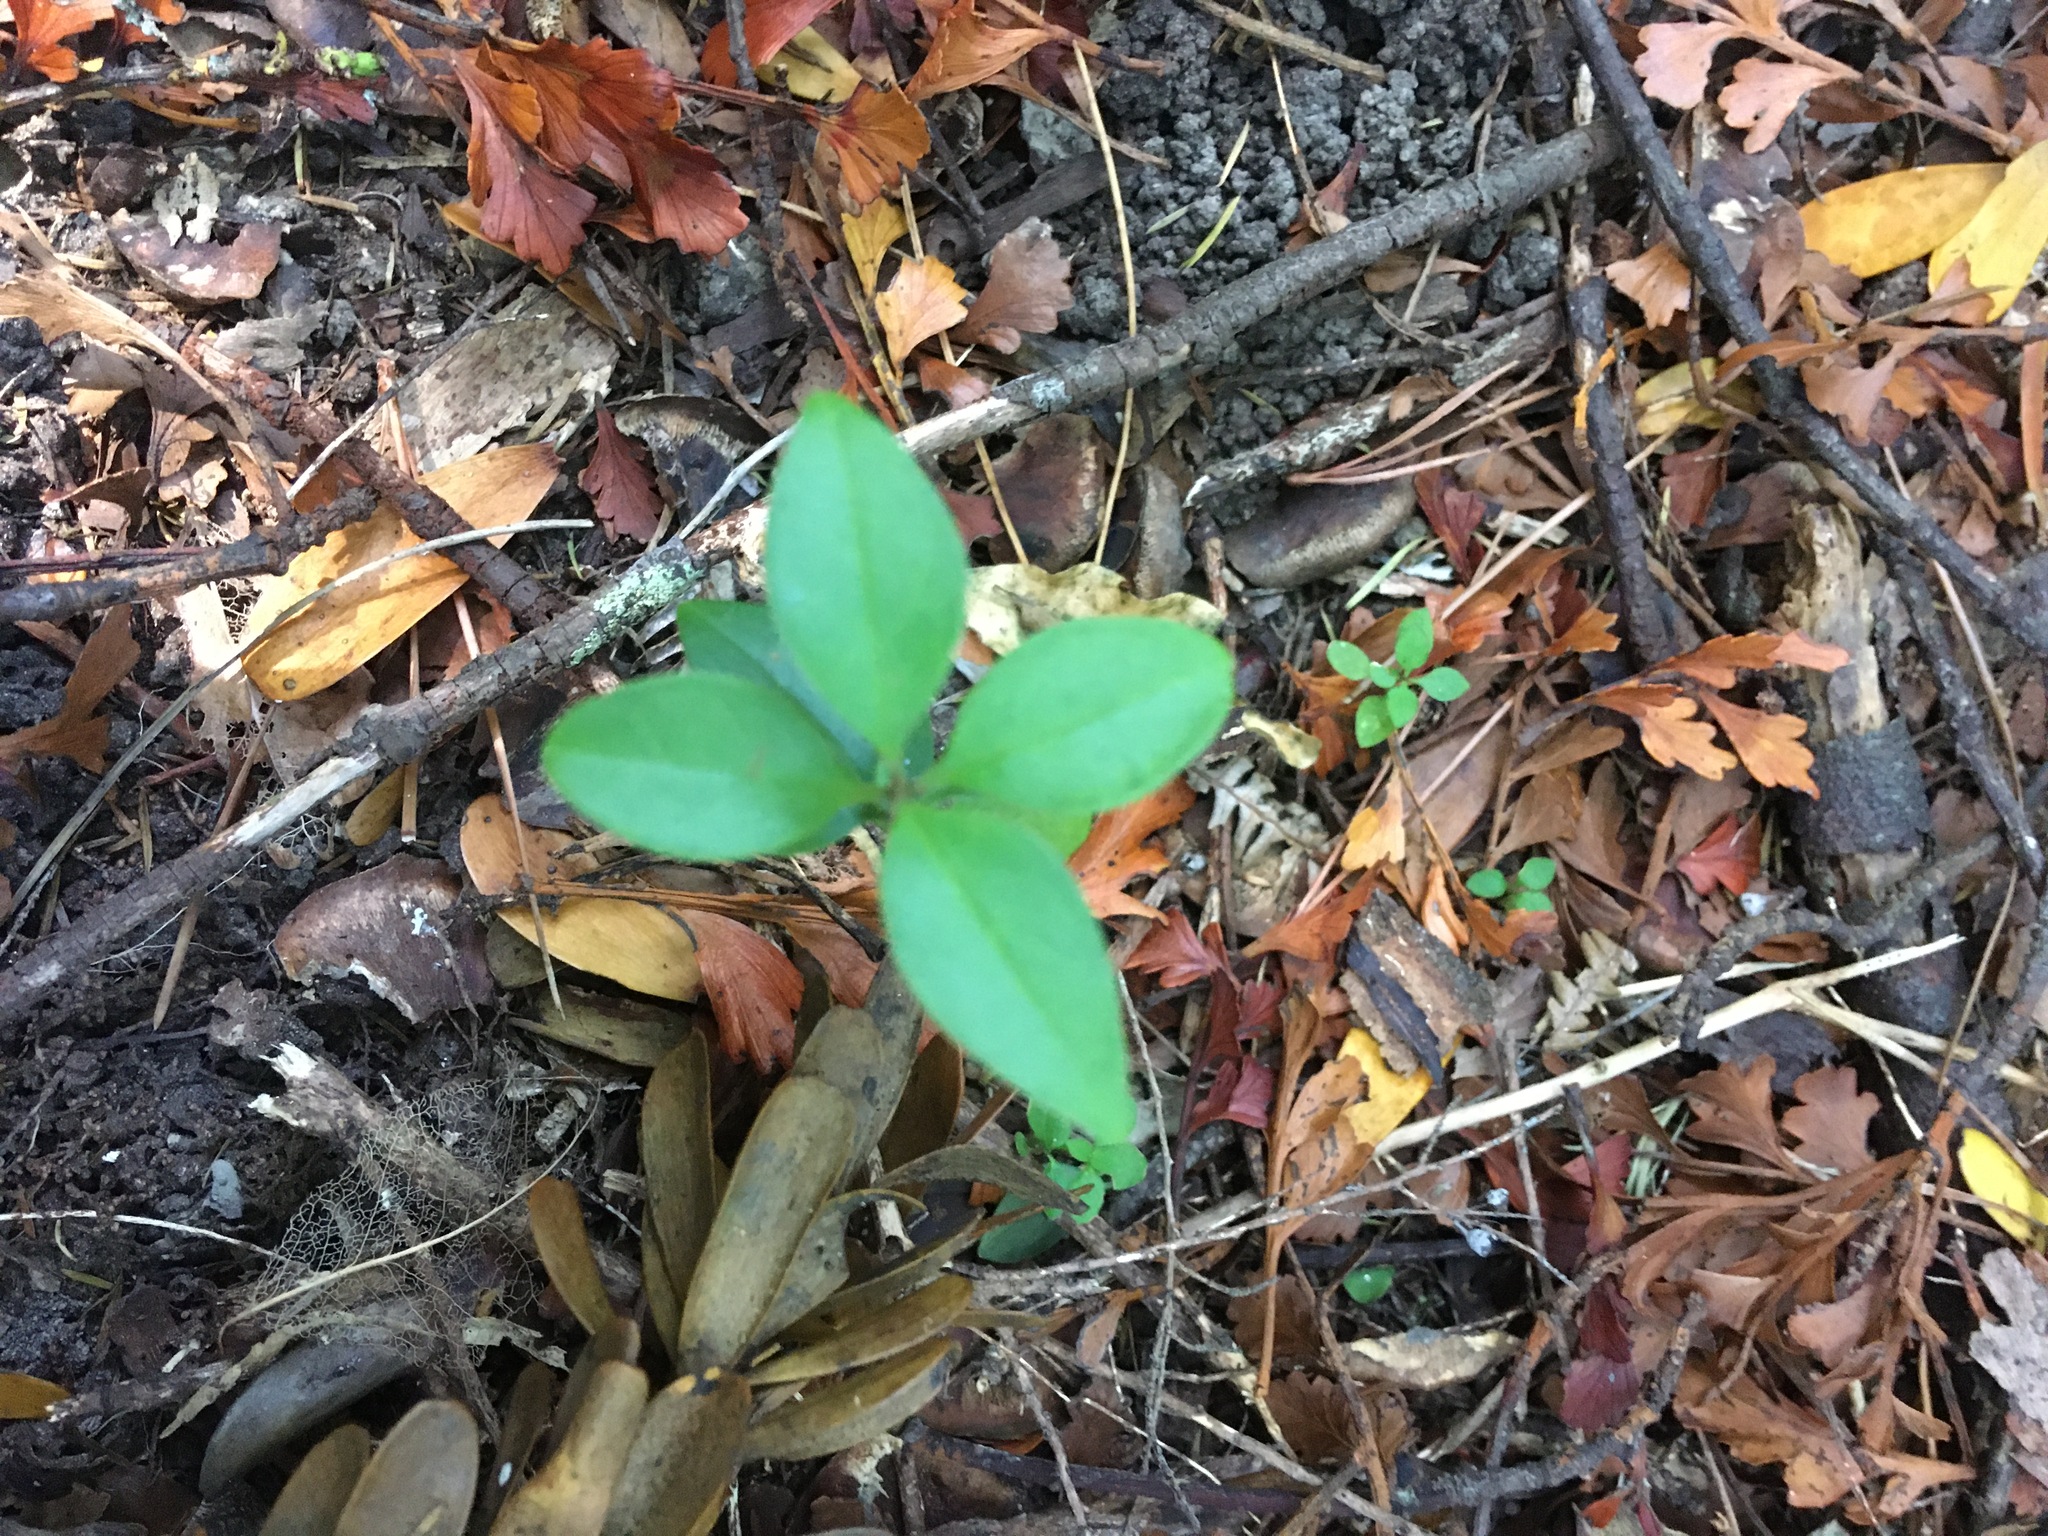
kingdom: Plantae
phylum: Tracheophyta
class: Magnoliopsida
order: Lamiales
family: Oleaceae
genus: Ligustrum
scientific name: Ligustrum lucidum
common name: Glossy privet
